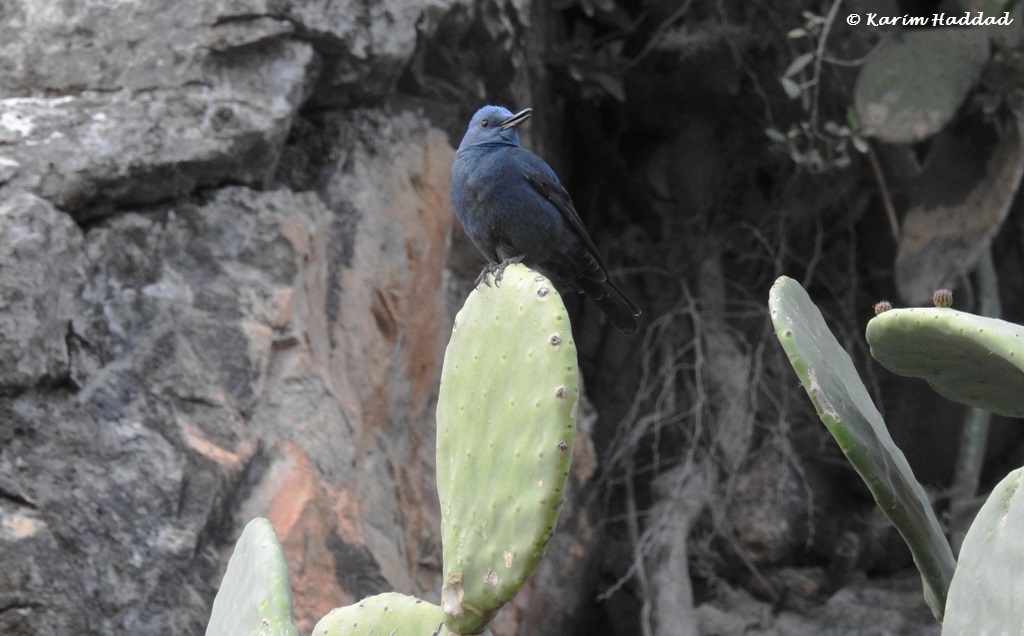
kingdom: Animalia
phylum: Chordata
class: Aves
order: Passeriformes
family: Muscicapidae
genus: Monticola
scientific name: Monticola solitarius
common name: Blue rock thrush
